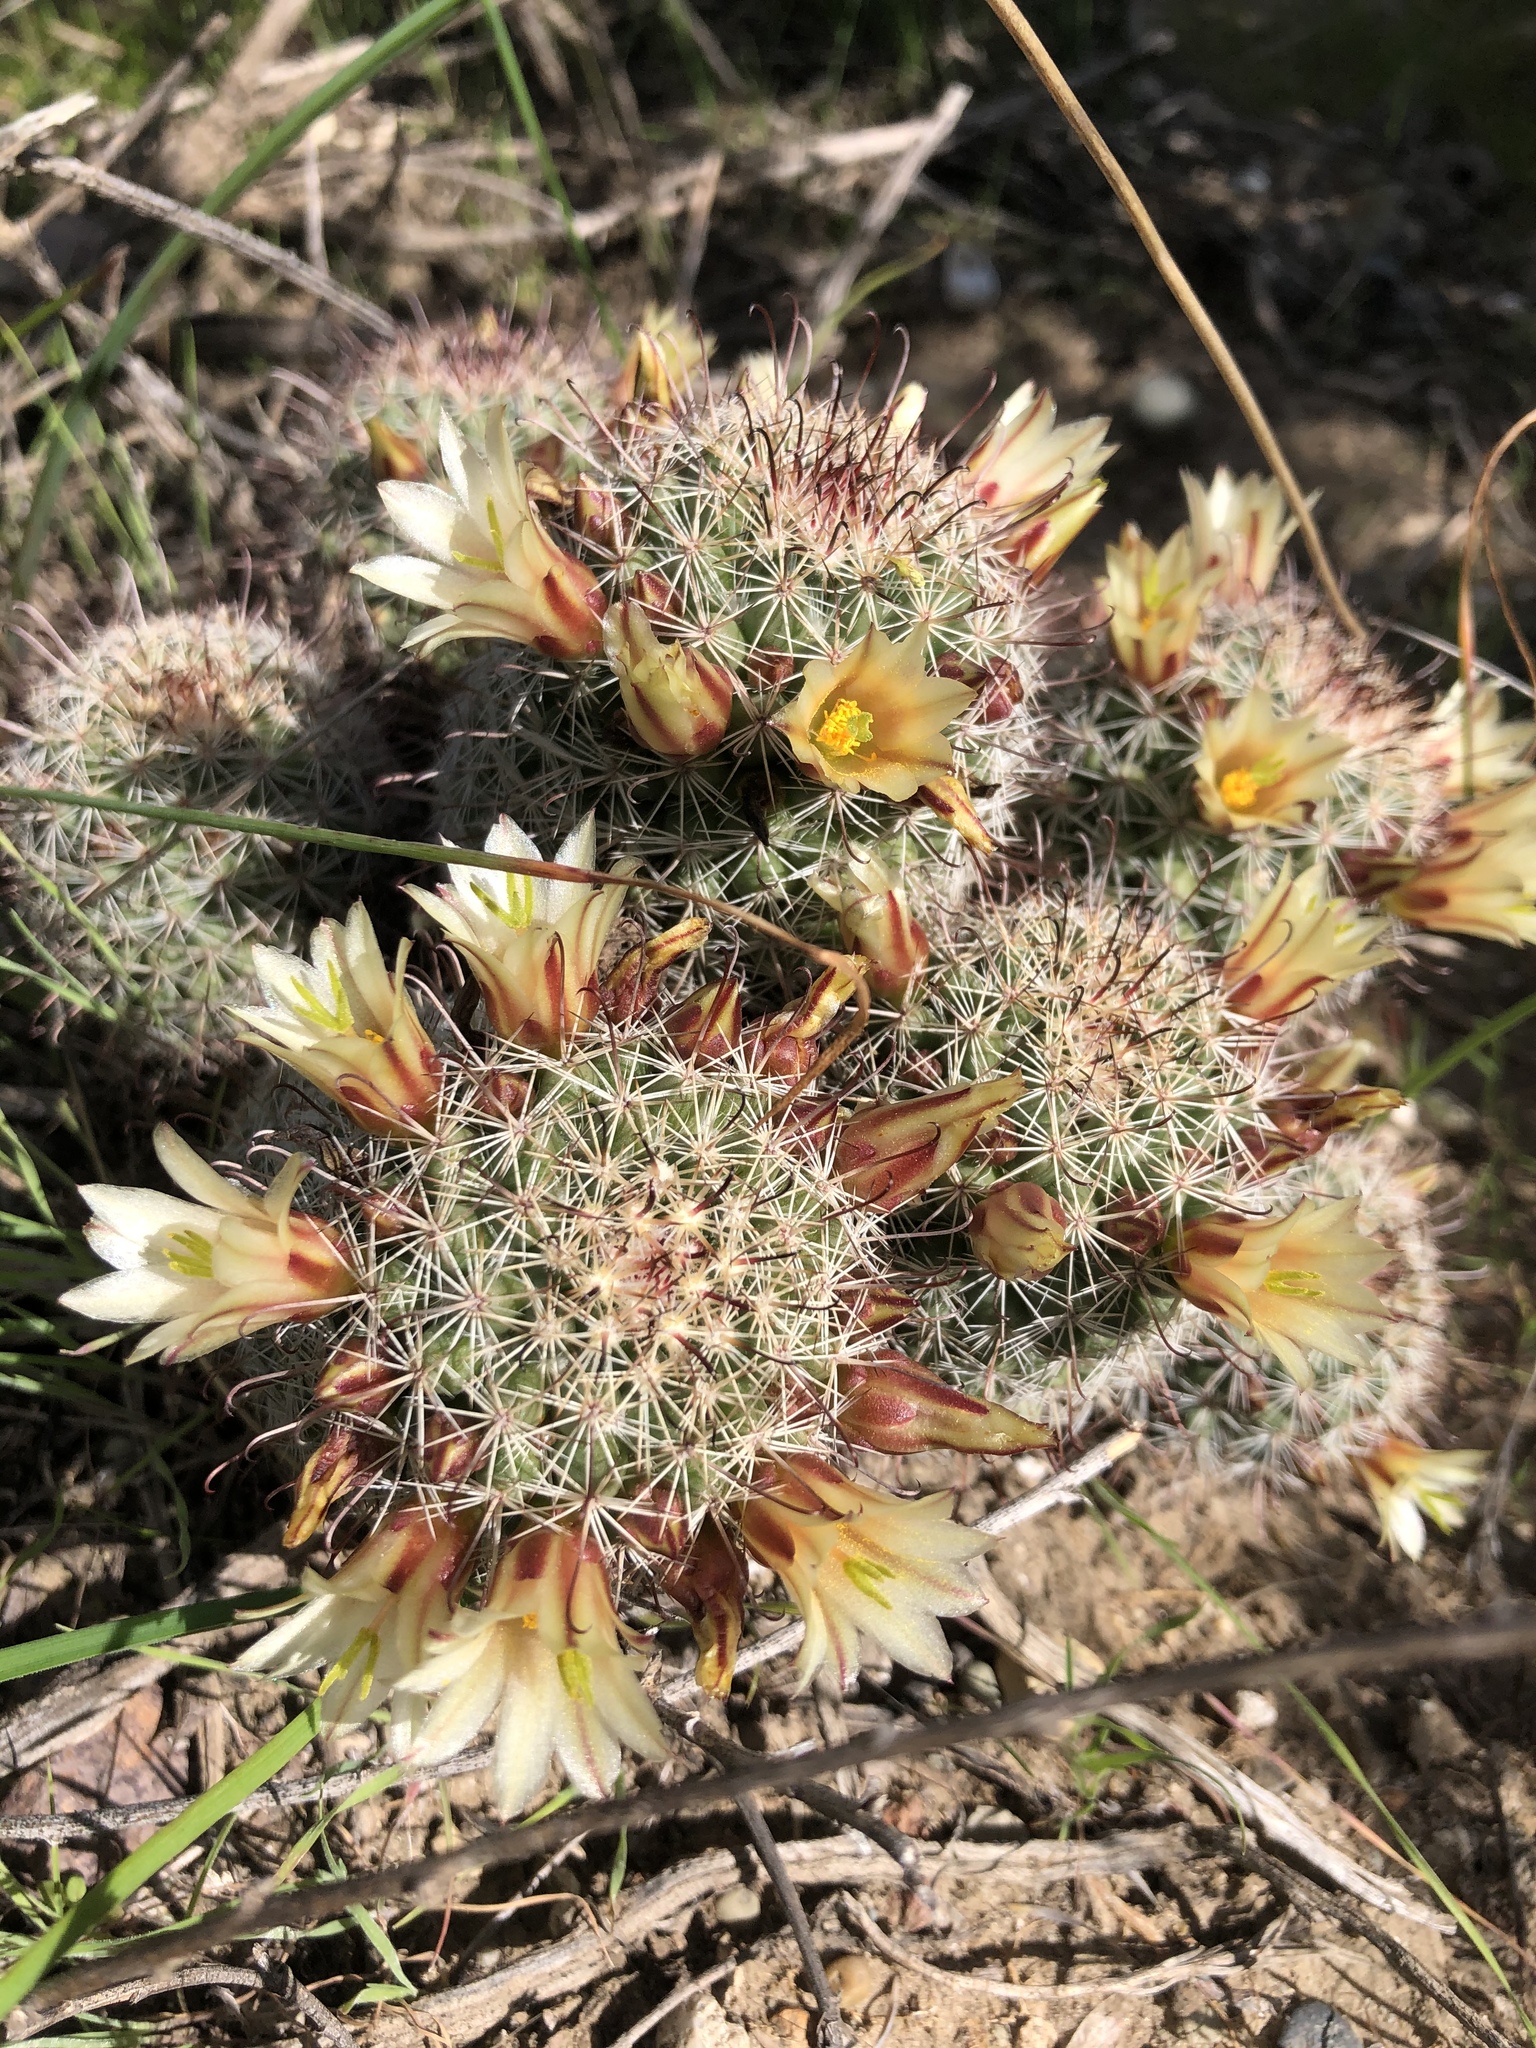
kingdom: Plantae
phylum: Tracheophyta
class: Magnoliopsida
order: Caryophyllales
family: Cactaceae
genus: Cochemiea
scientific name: Cochemiea dioica
